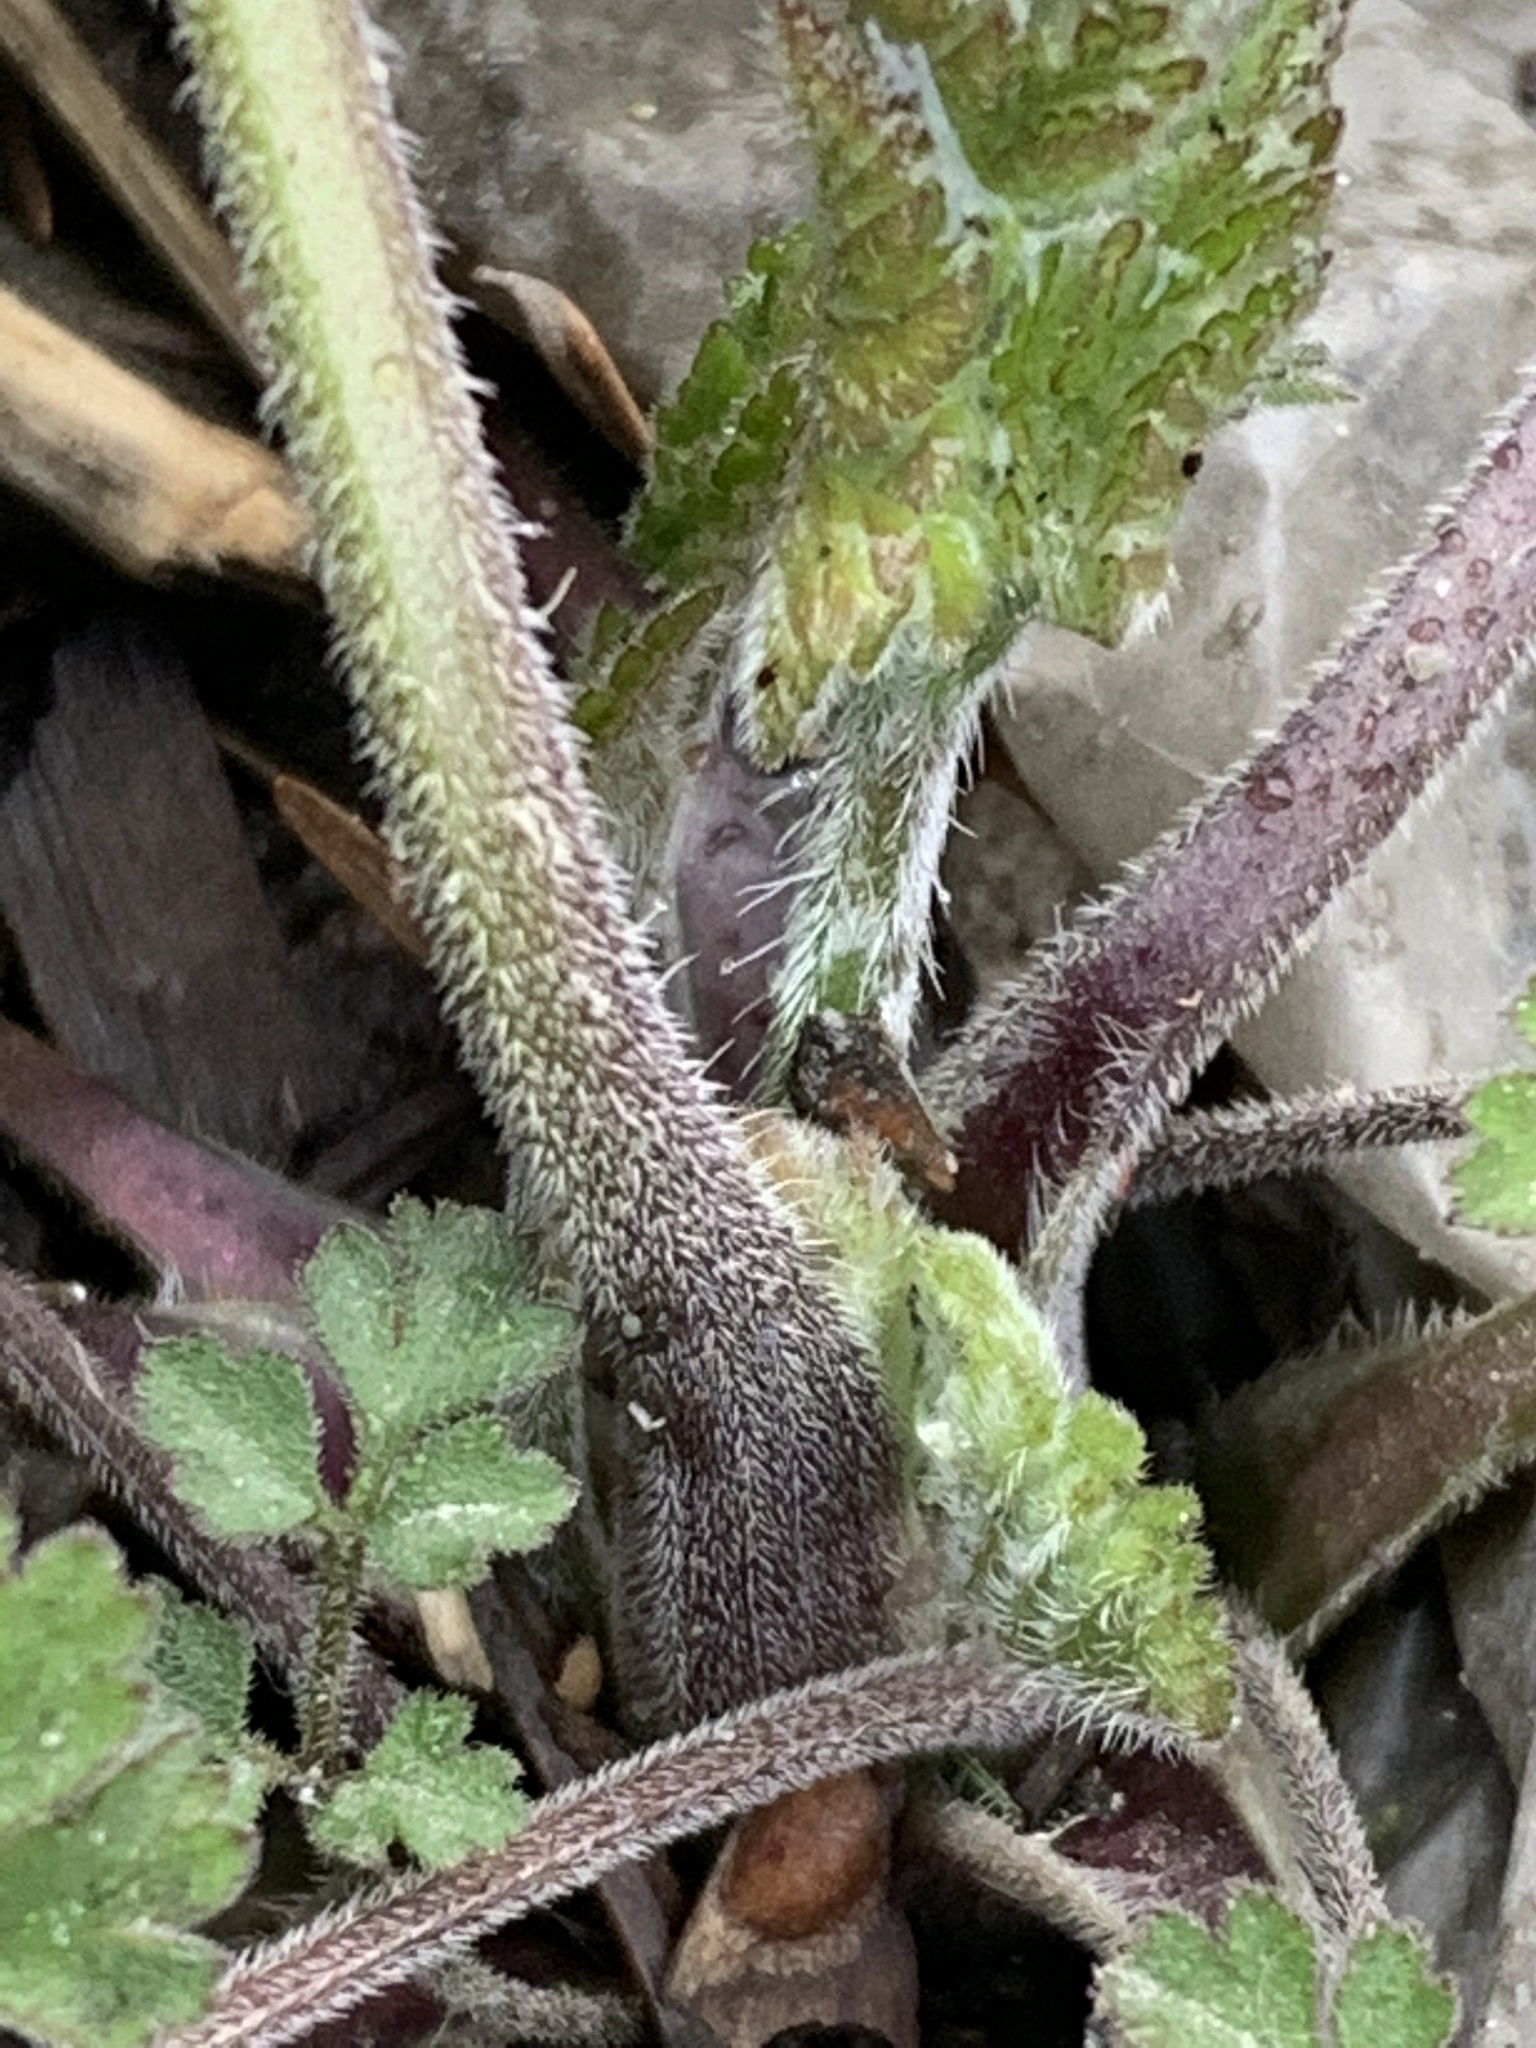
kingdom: Plantae
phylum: Tracheophyta
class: Magnoliopsida
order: Apiales
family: Apiaceae
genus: Chaerophyllum
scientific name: Chaerophyllum temulum
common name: Rough chervil
